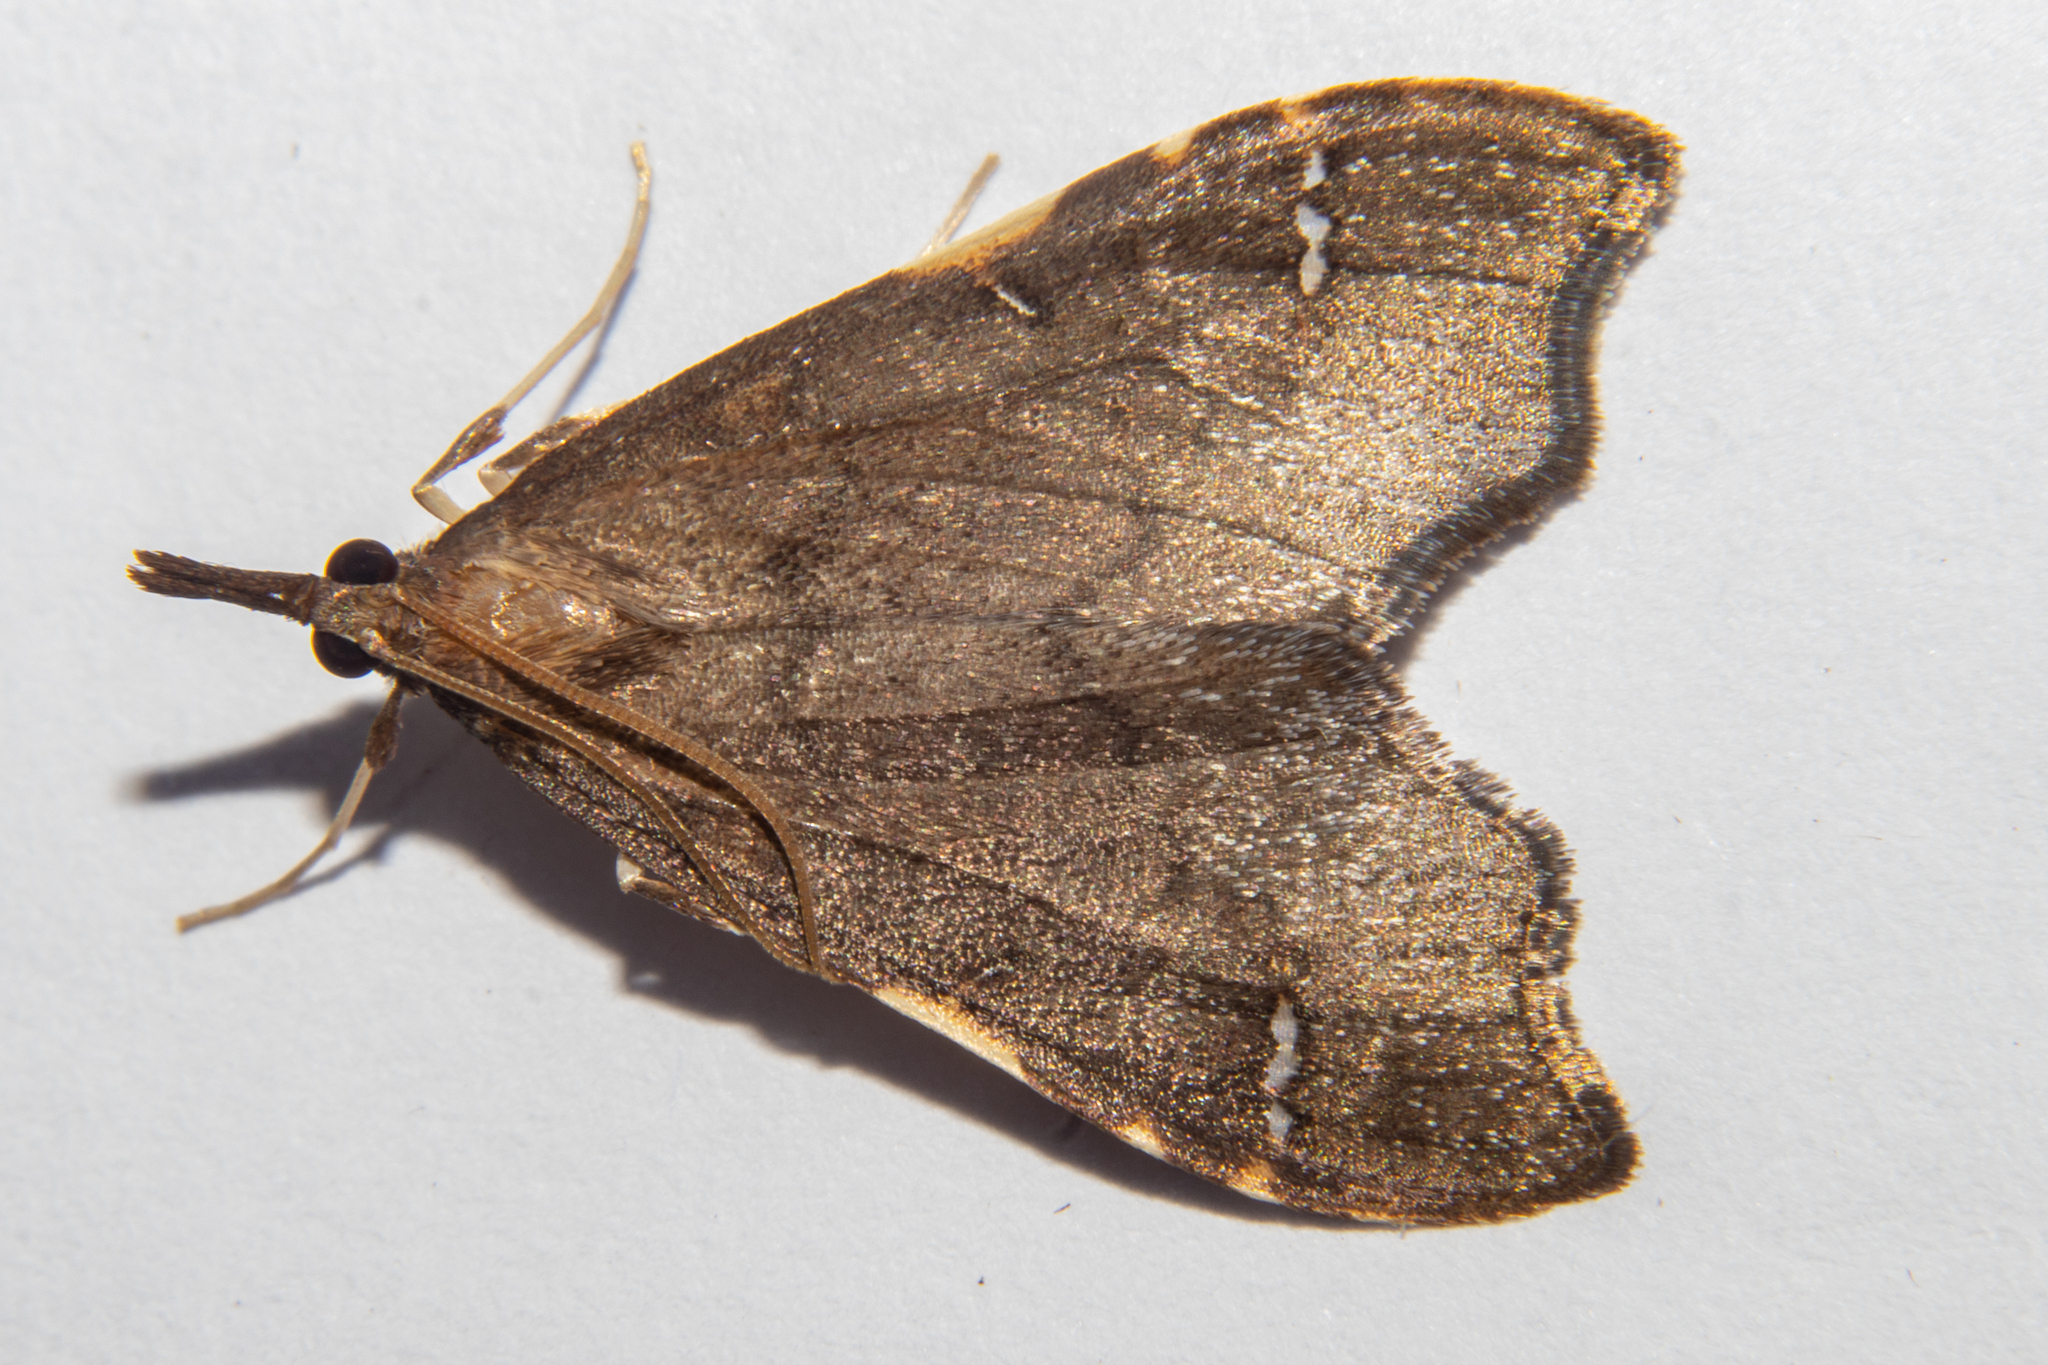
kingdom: Animalia
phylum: Arthropoda
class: Insecta
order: Lepidoptera
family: Crambidae
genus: Deana
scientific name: Deana hybreasalis
